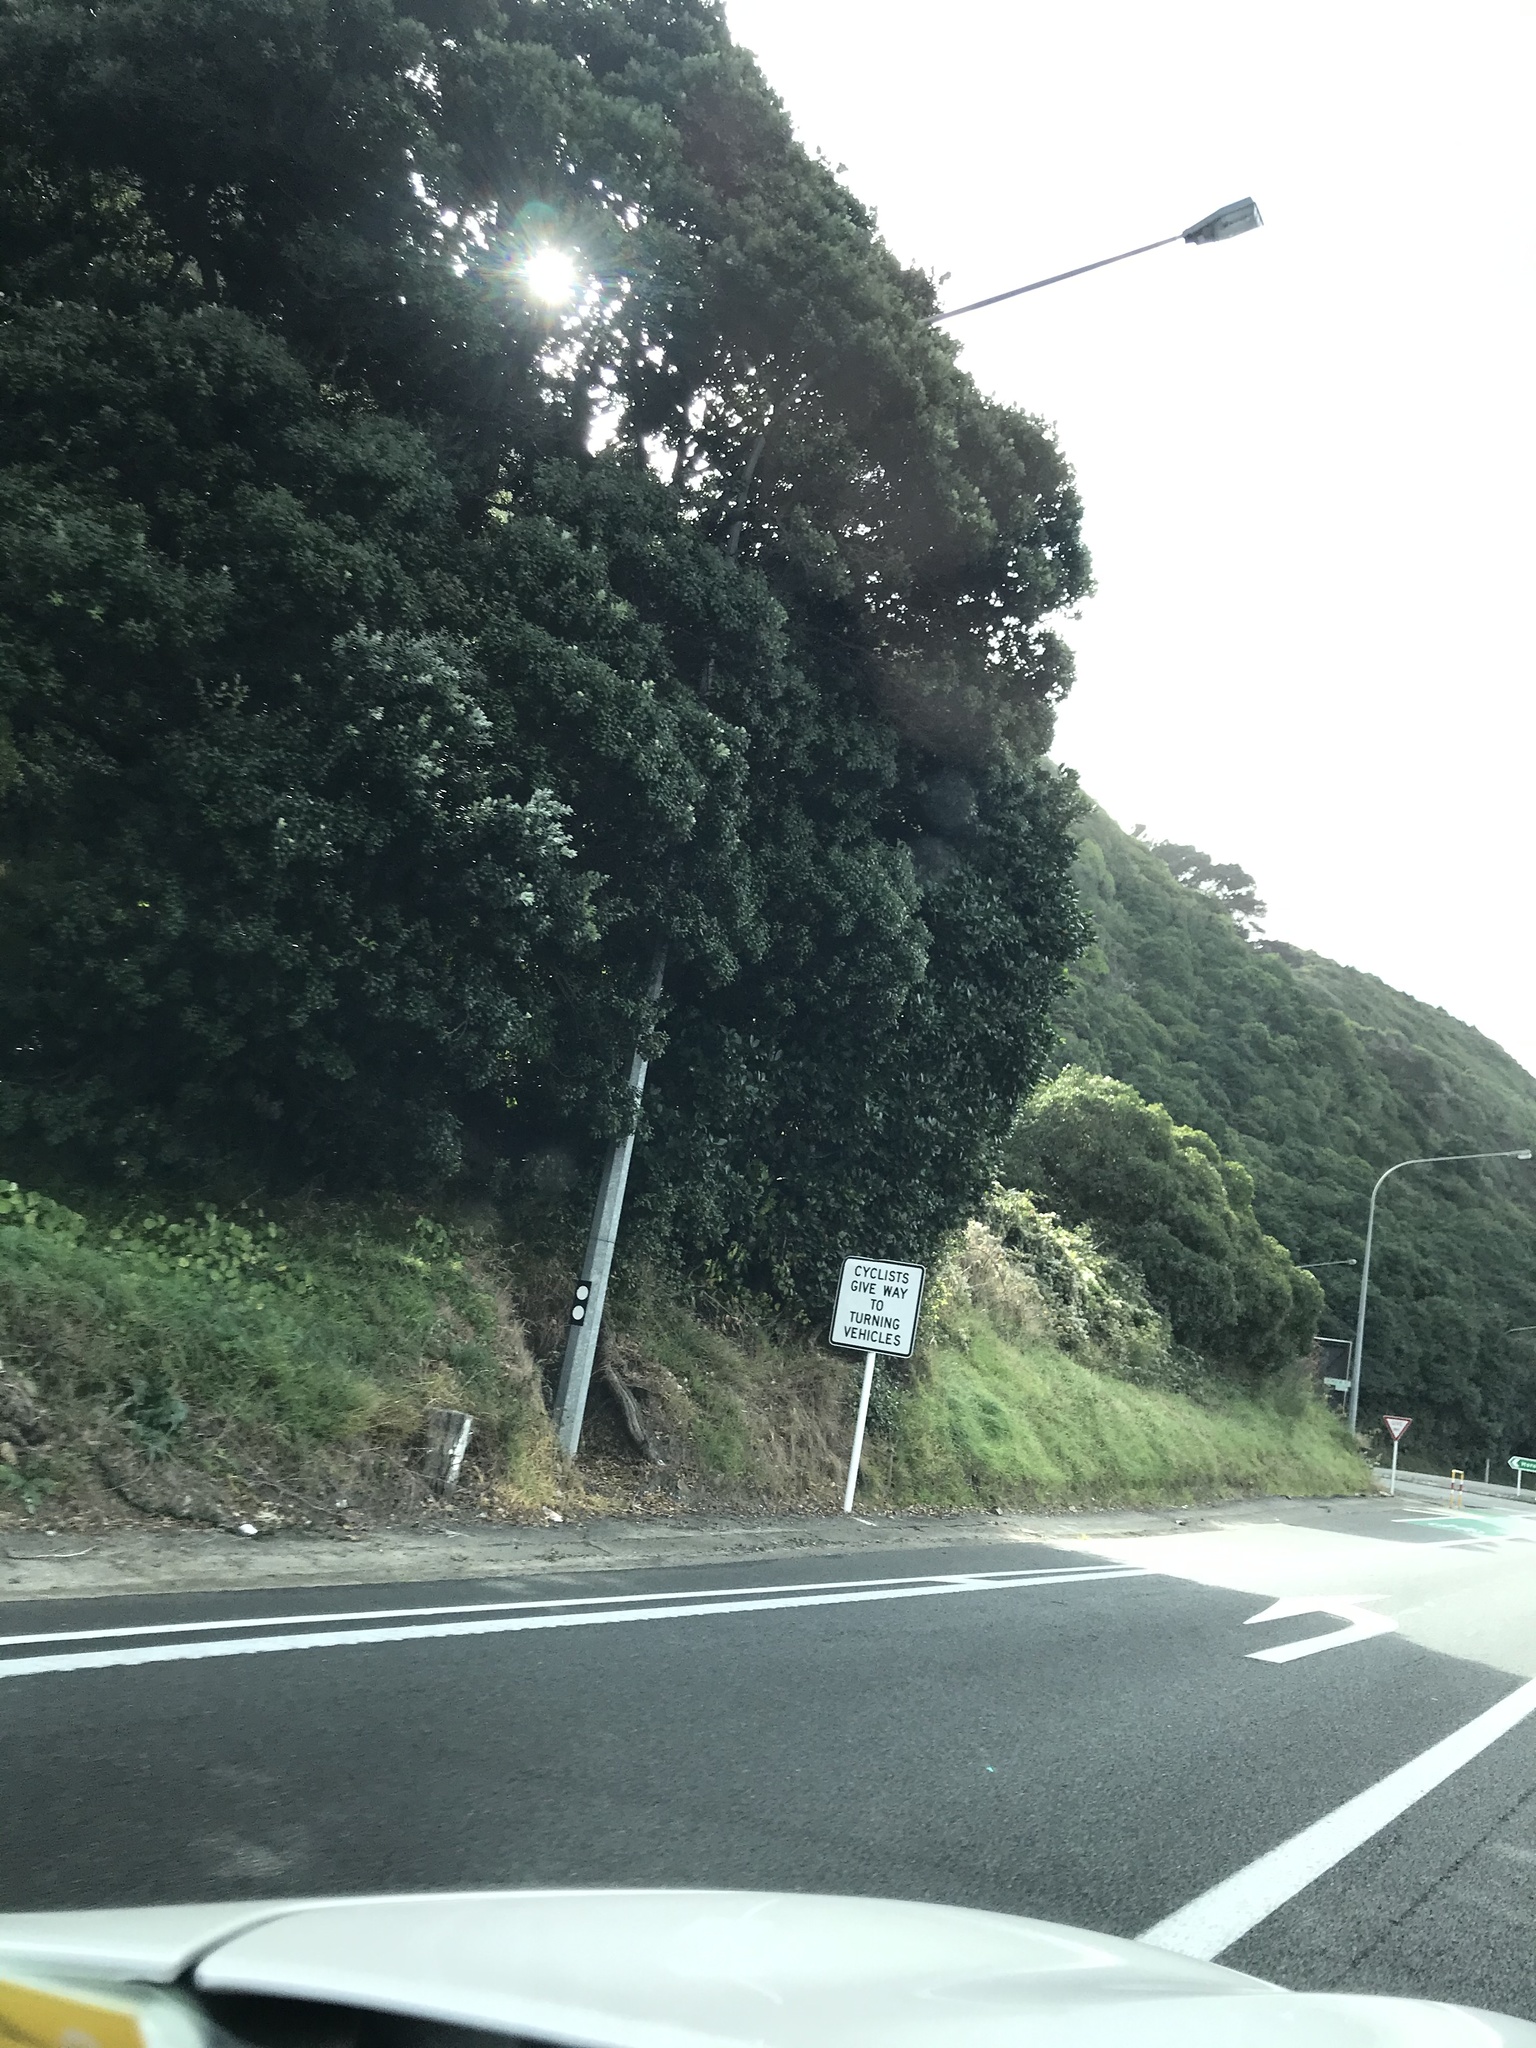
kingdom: Plantae
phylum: Tracheophyta
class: Magnoliopsida
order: Myrtales
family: Myrtaceae
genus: Metrosideros
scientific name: Metrosideros excelsa
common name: New zealand christmastree
